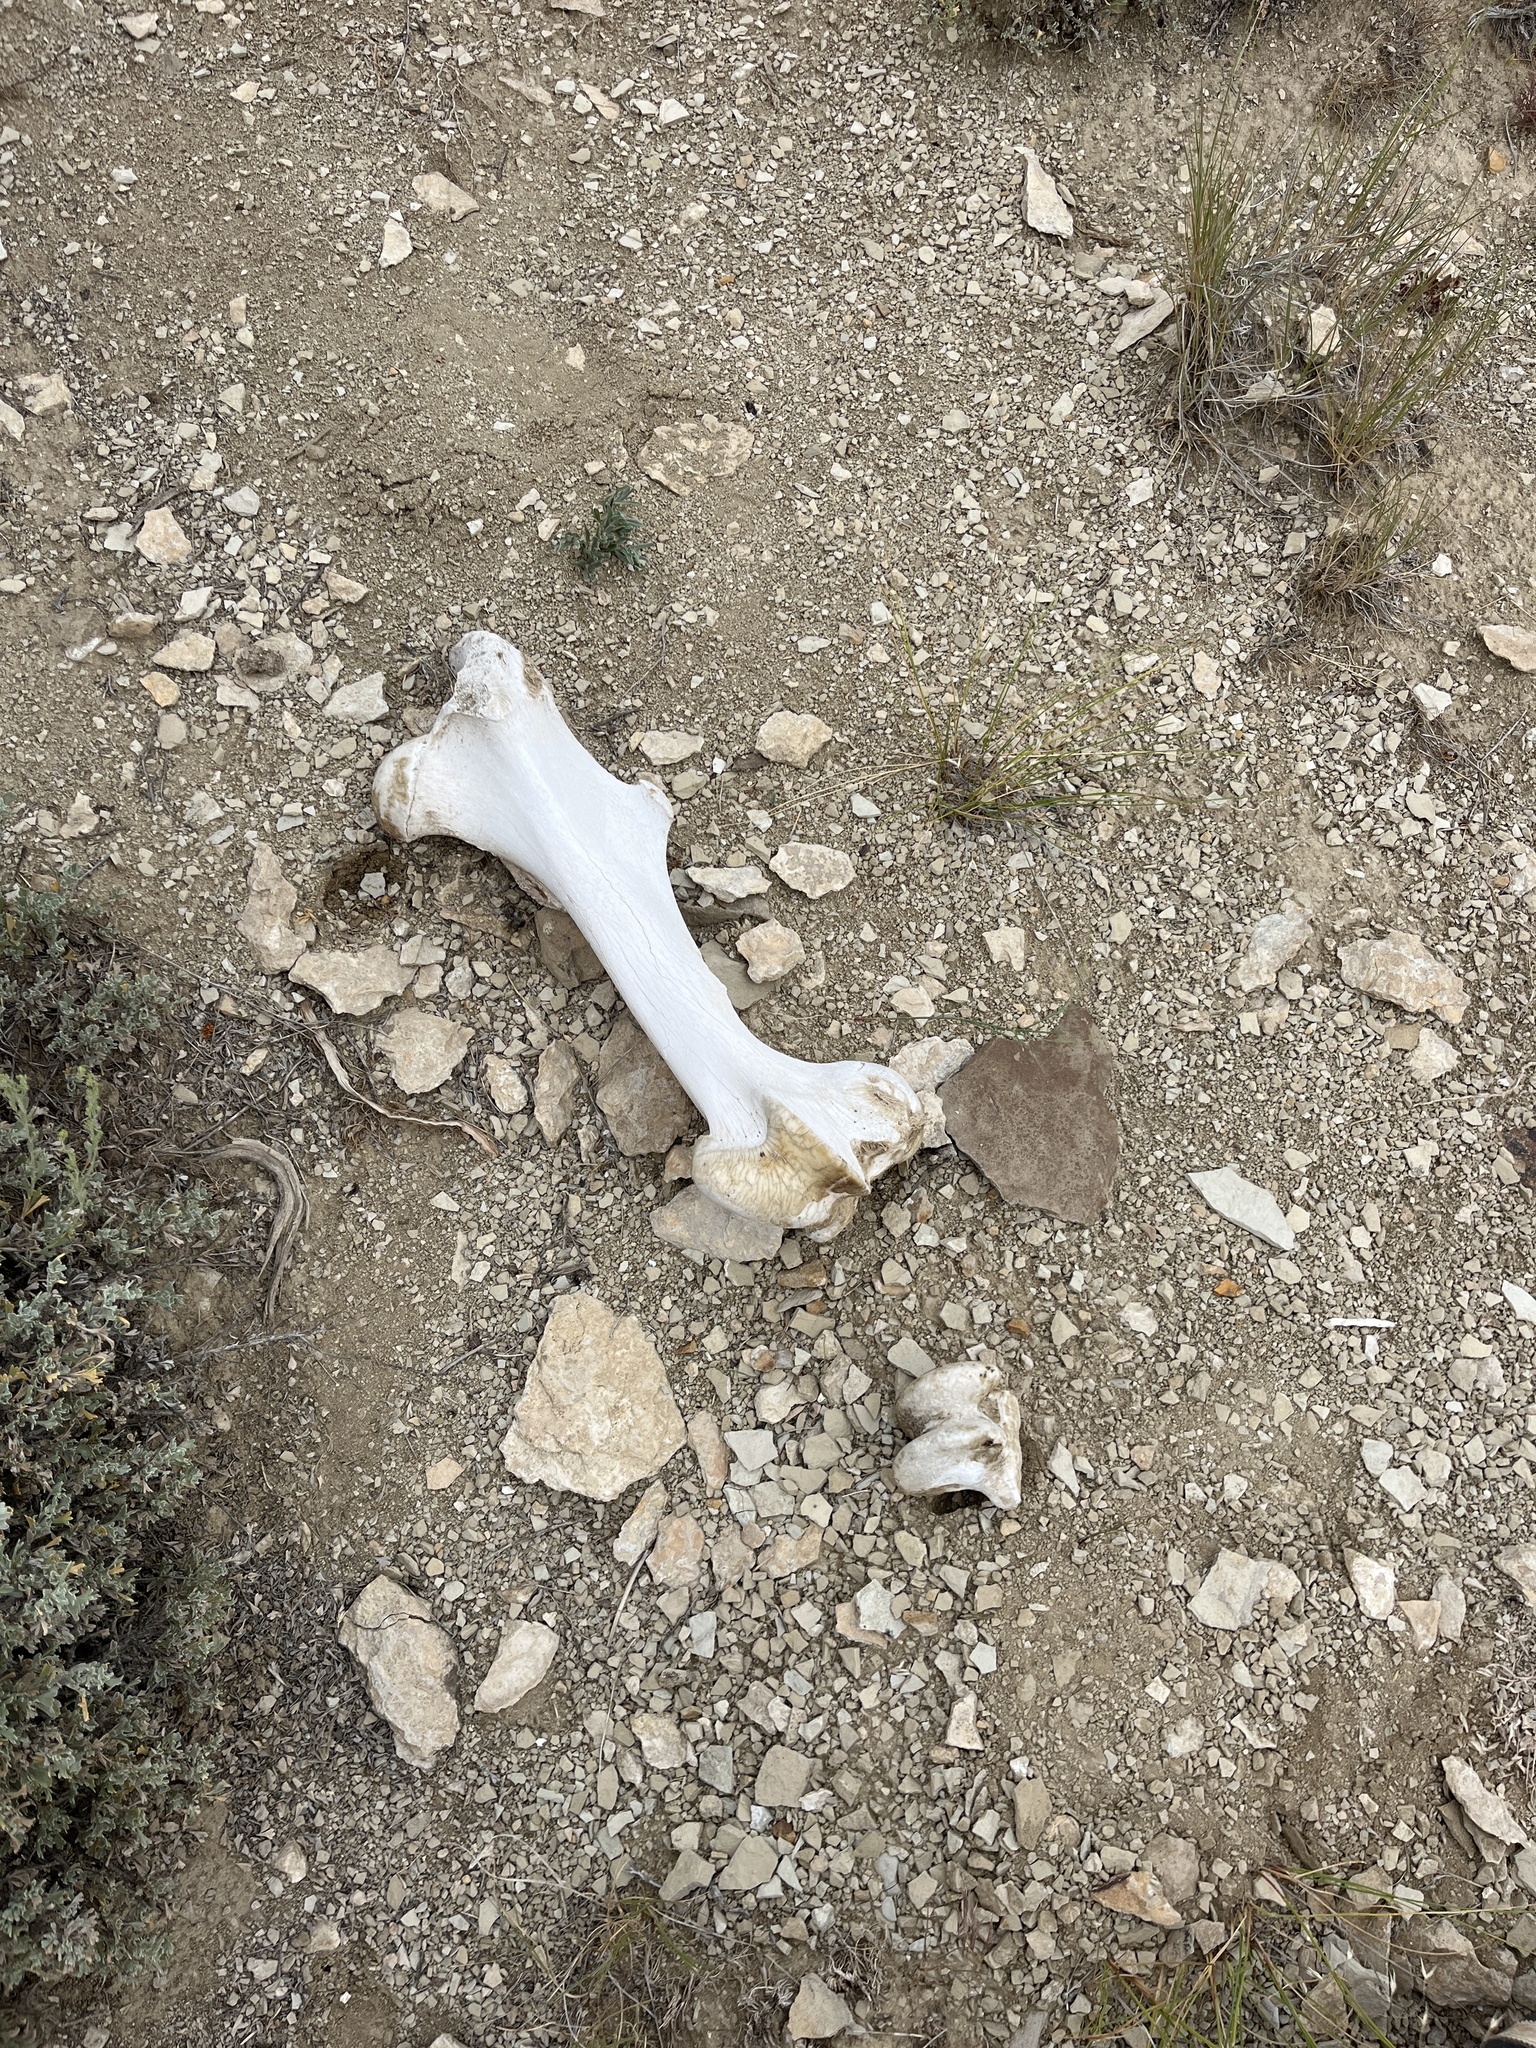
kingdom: Animalia
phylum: Chordata
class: Mammalia
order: Perissodactyla
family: Equidae
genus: Equus
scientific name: Equus caballus
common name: Horse
